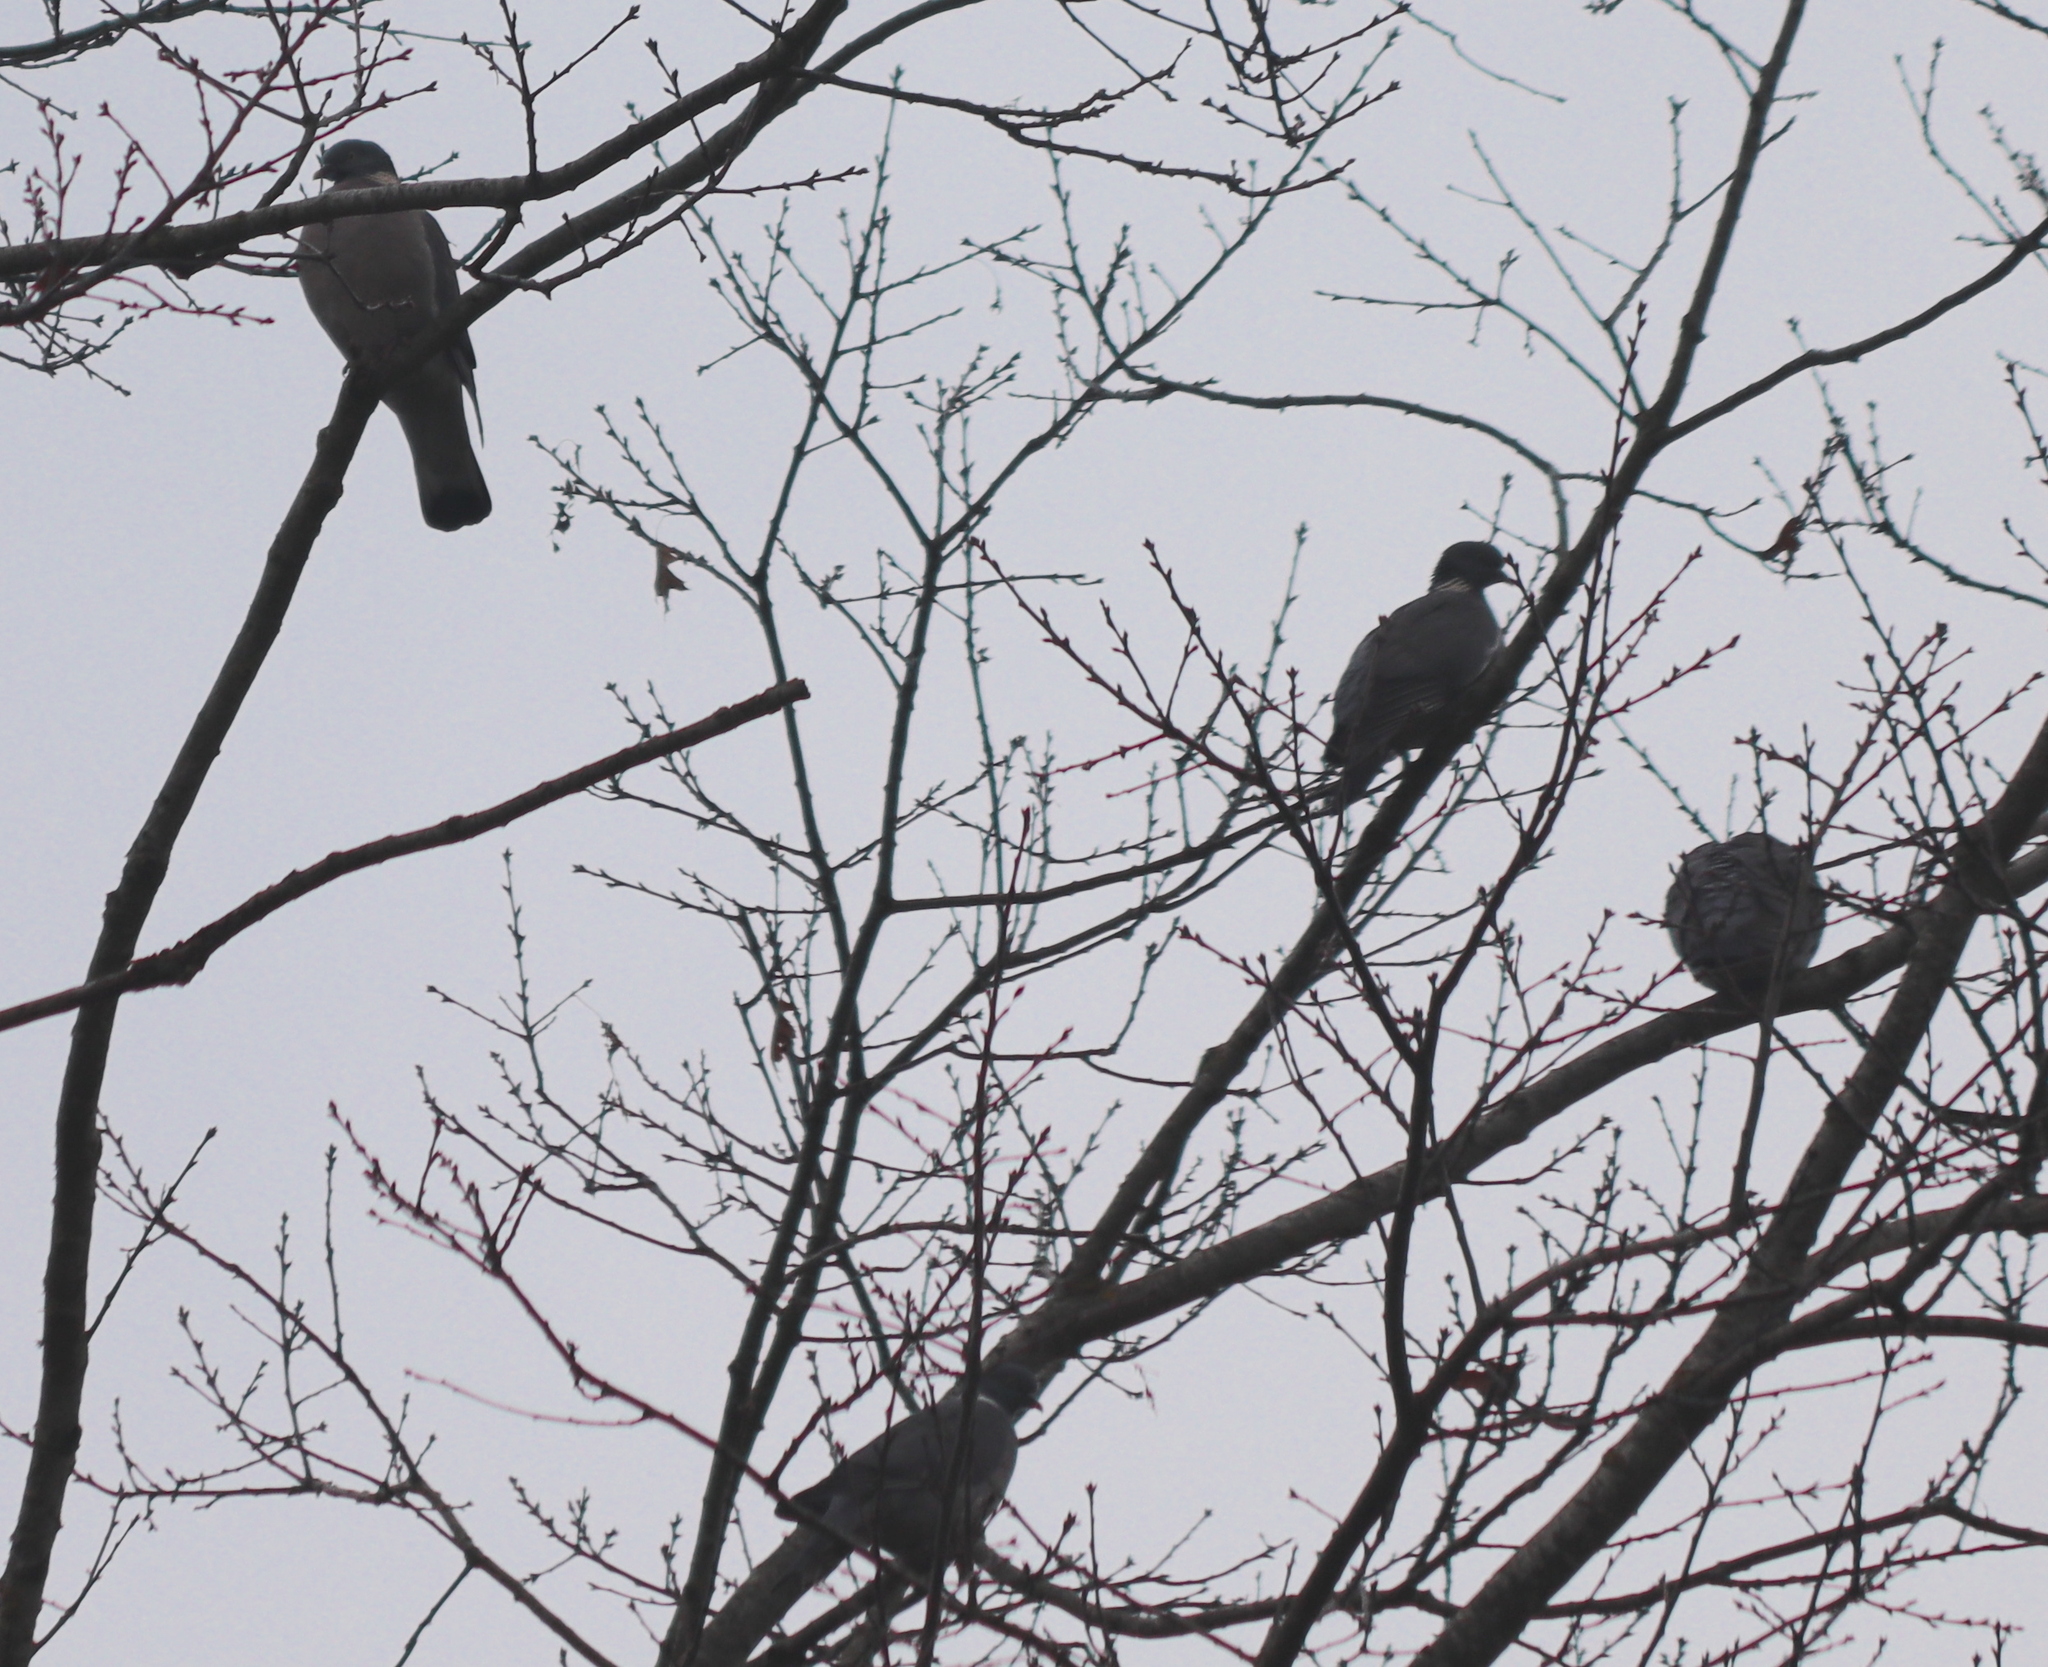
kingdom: Animalia
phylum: Chordata
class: Aves
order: Columbiformes
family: Columbidae
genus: Columba
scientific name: Columba palumbus
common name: Common wood pigeon
